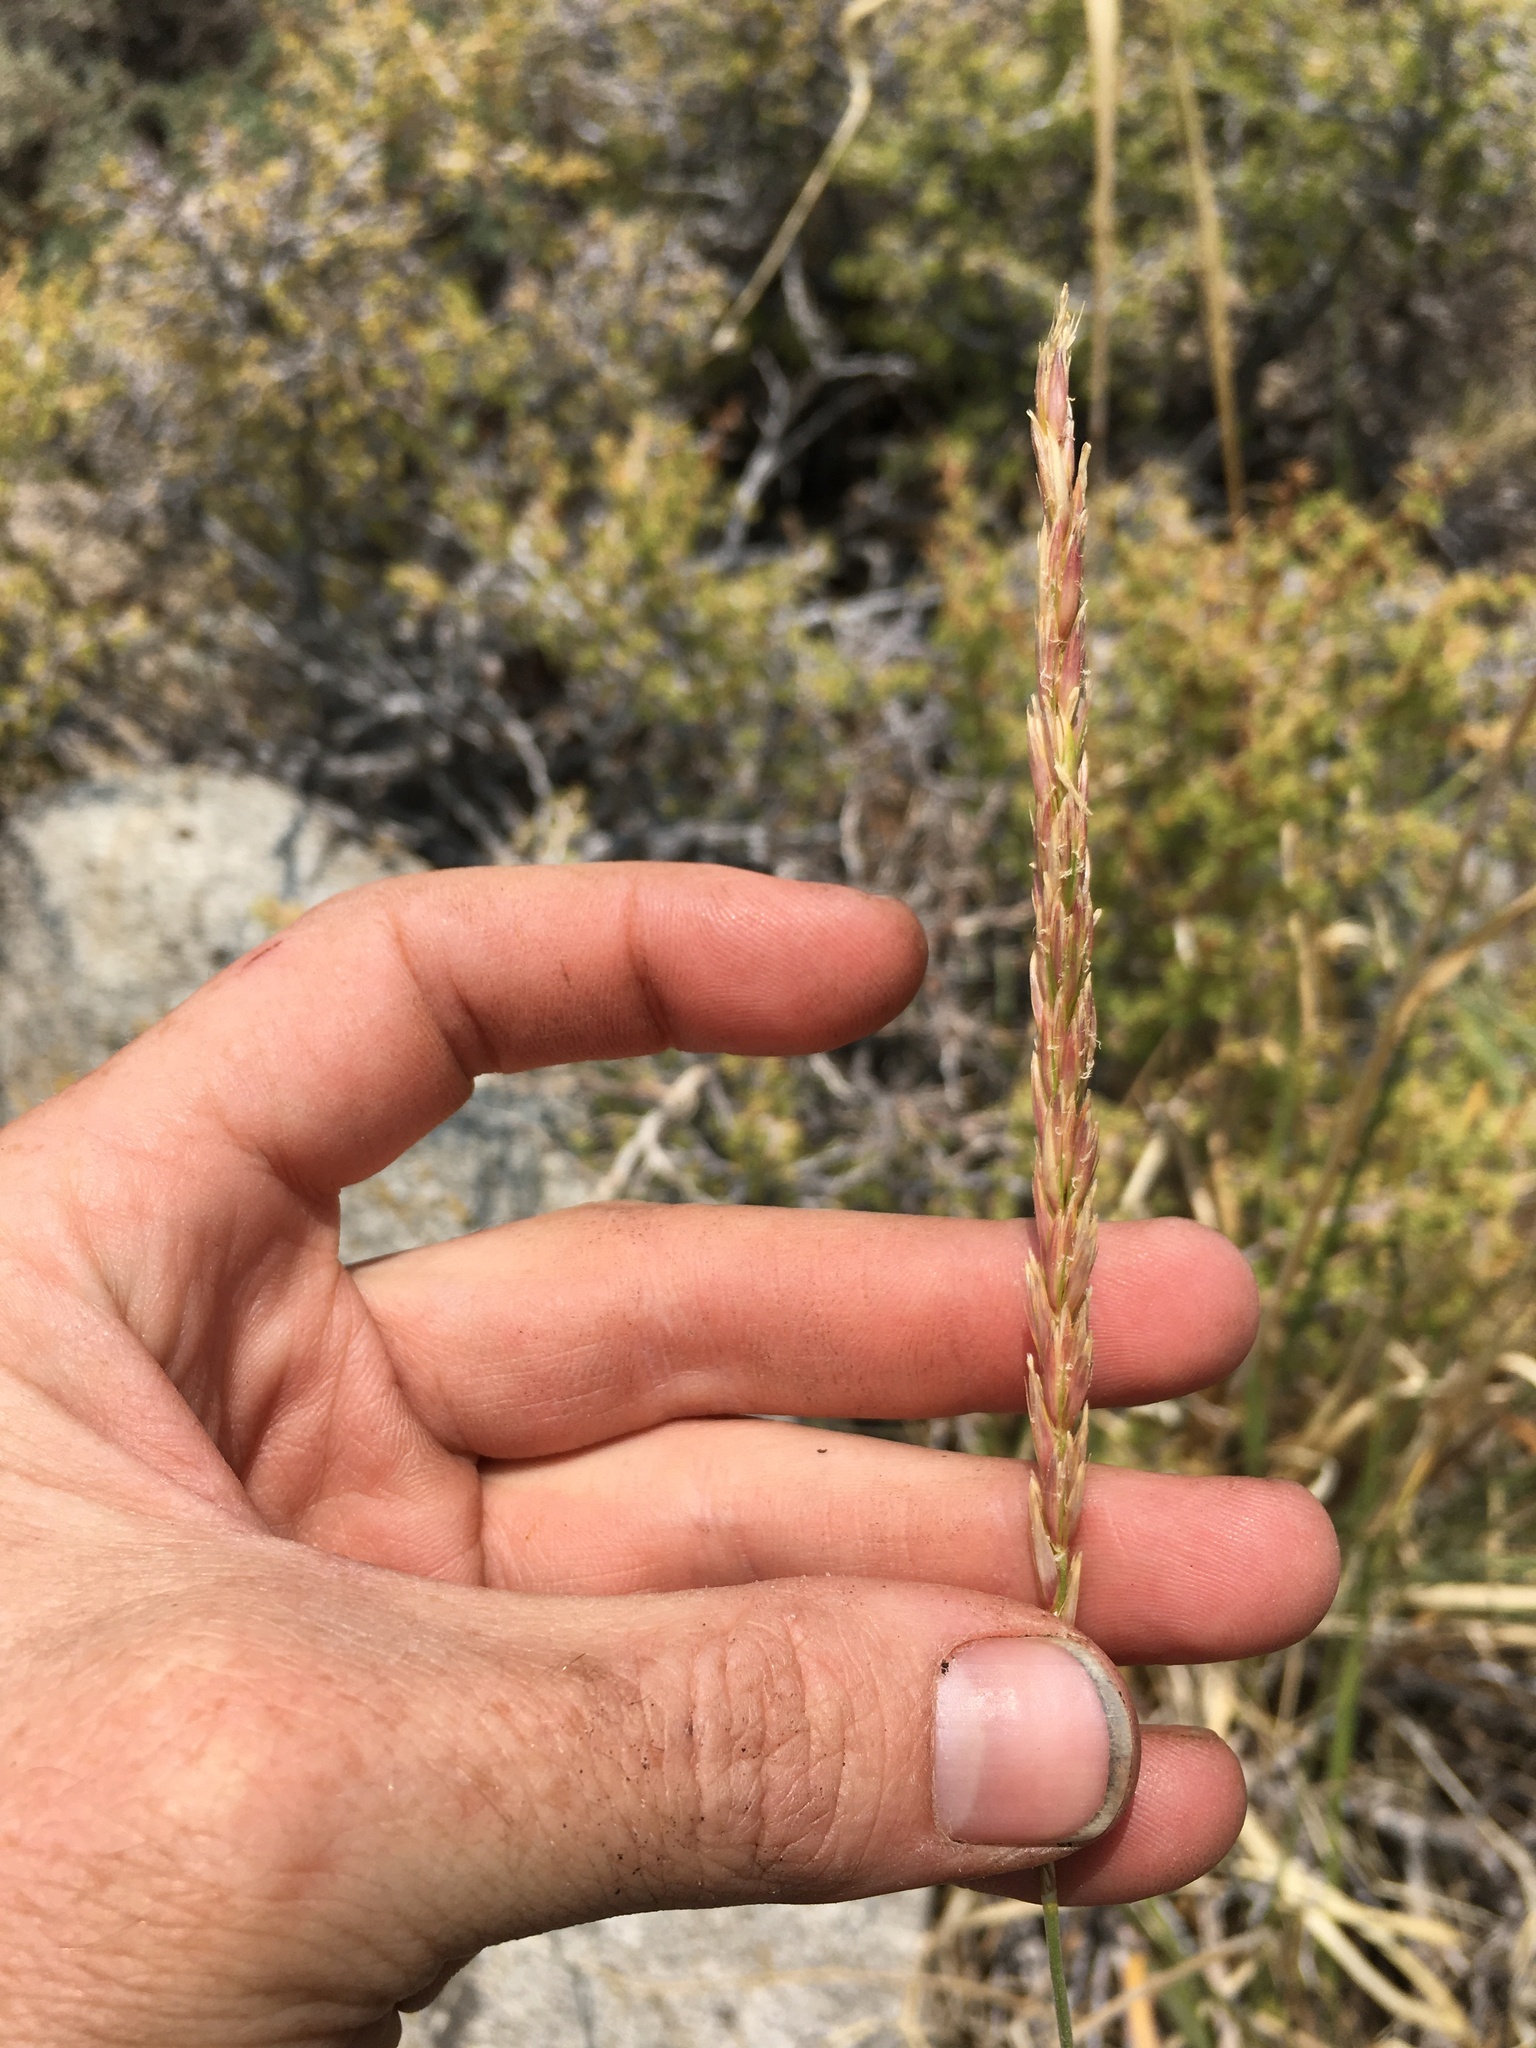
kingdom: Plantae
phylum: Tracheophyta
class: Liliopsida
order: Poales
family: Poaceae
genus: Leymus
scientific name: Leymus cinereus
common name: Basin wild rye
